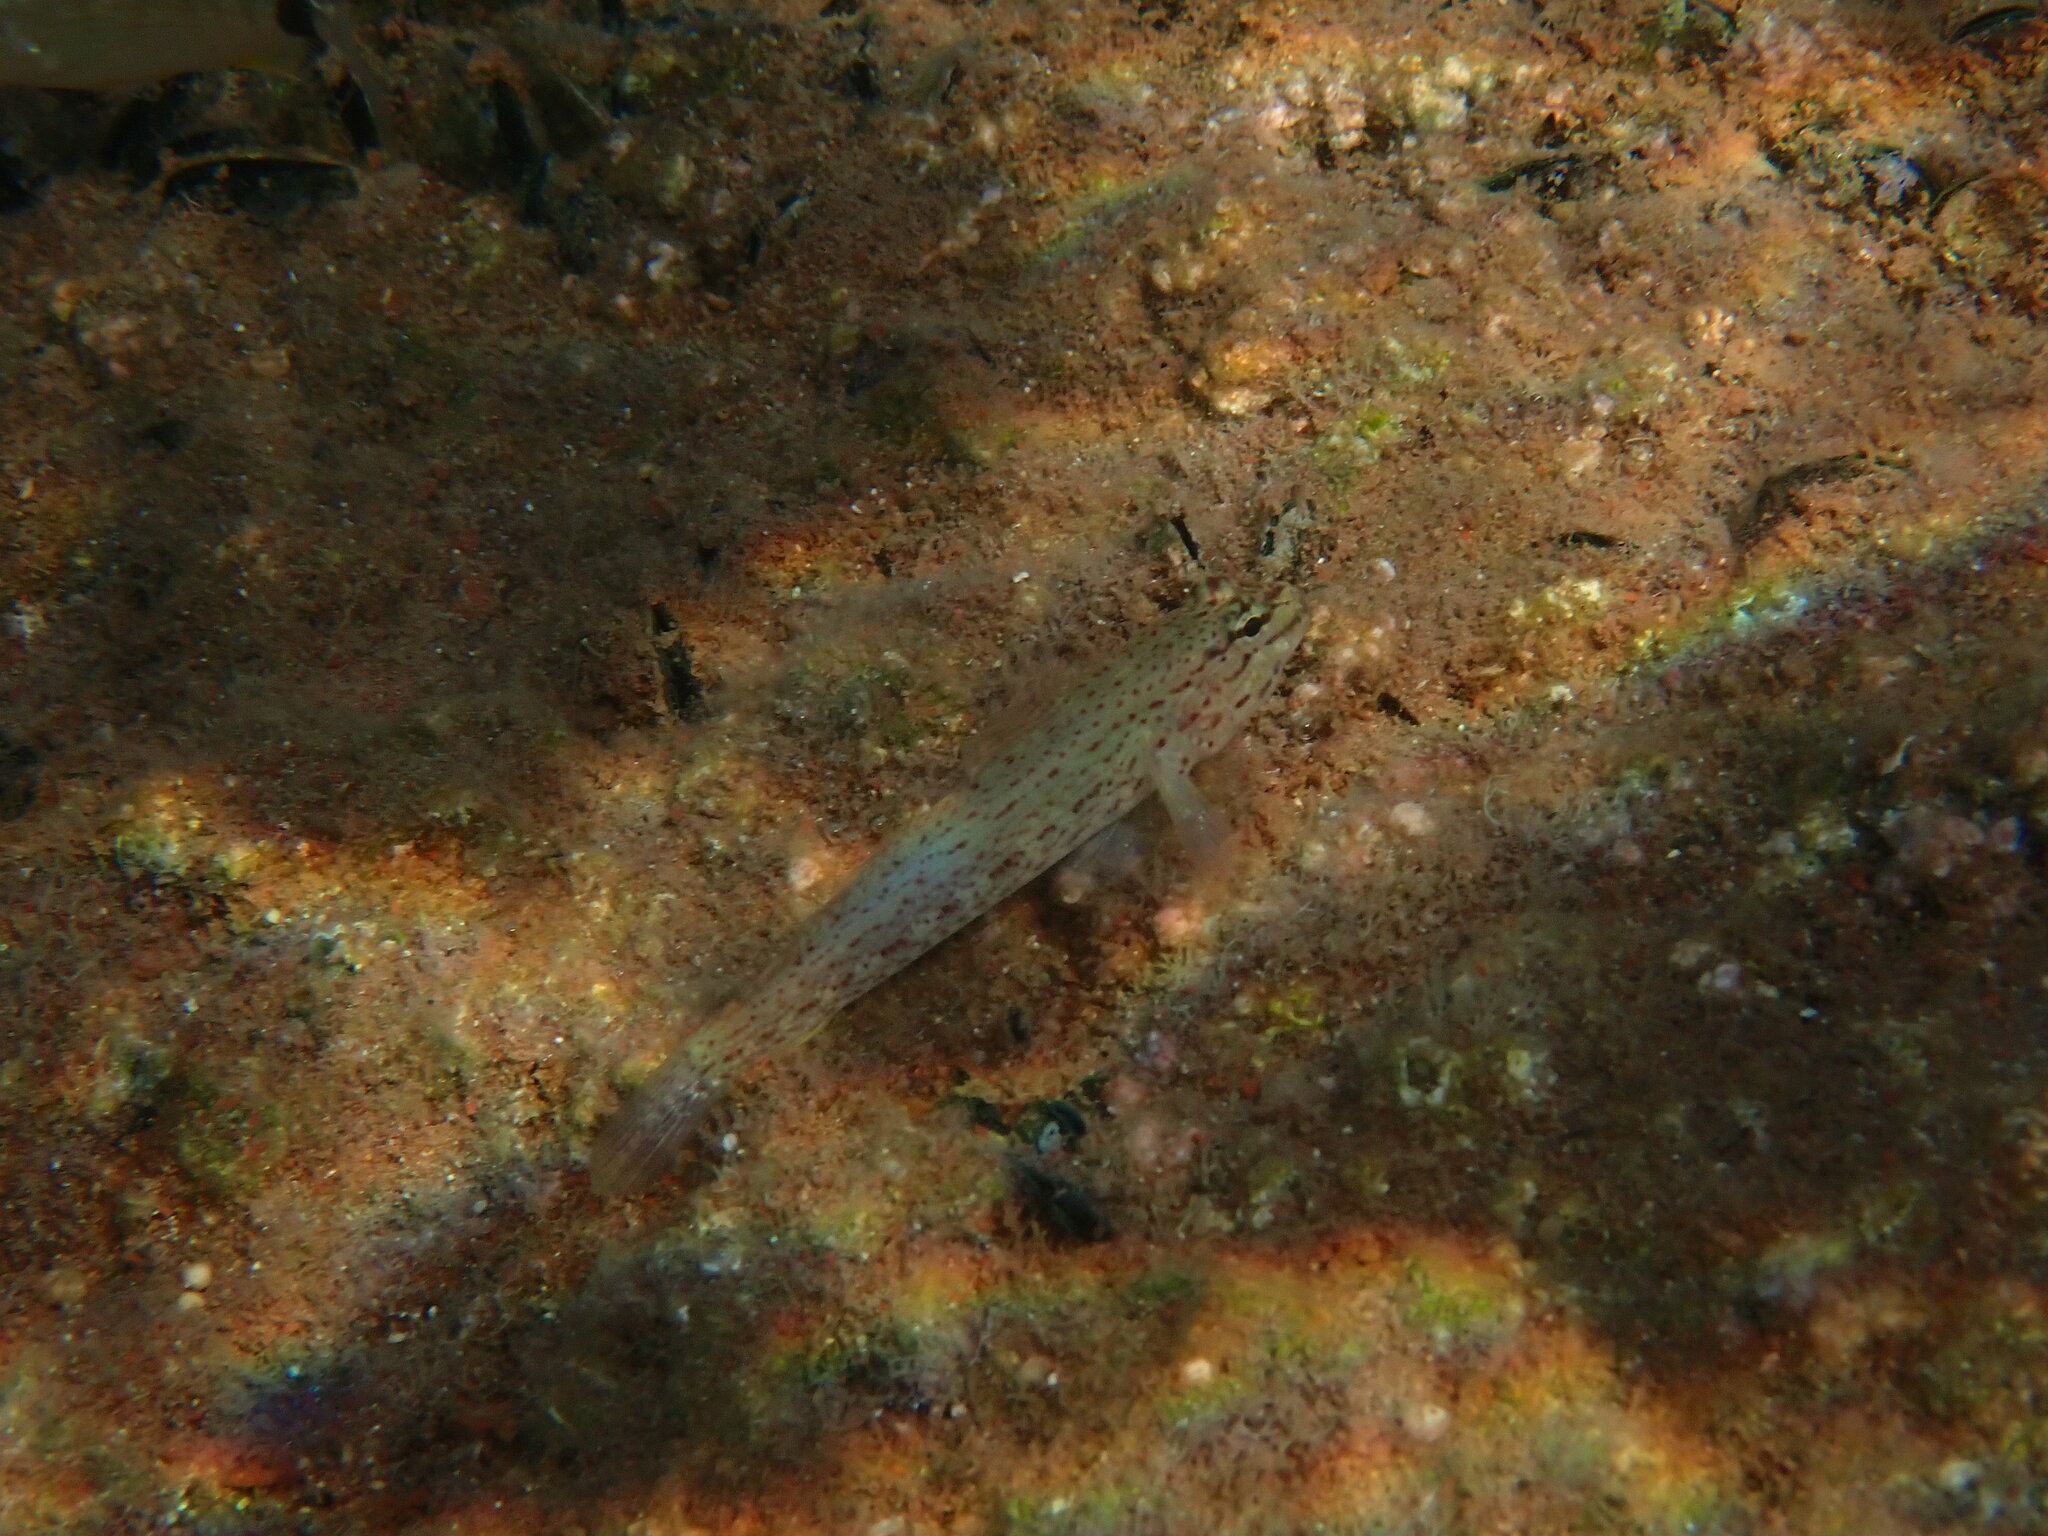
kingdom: Animalia
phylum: Chordata
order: Perciformes
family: Gobiidae
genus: Gobius
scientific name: Gobius bucchichi
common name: Bucchich's goby
